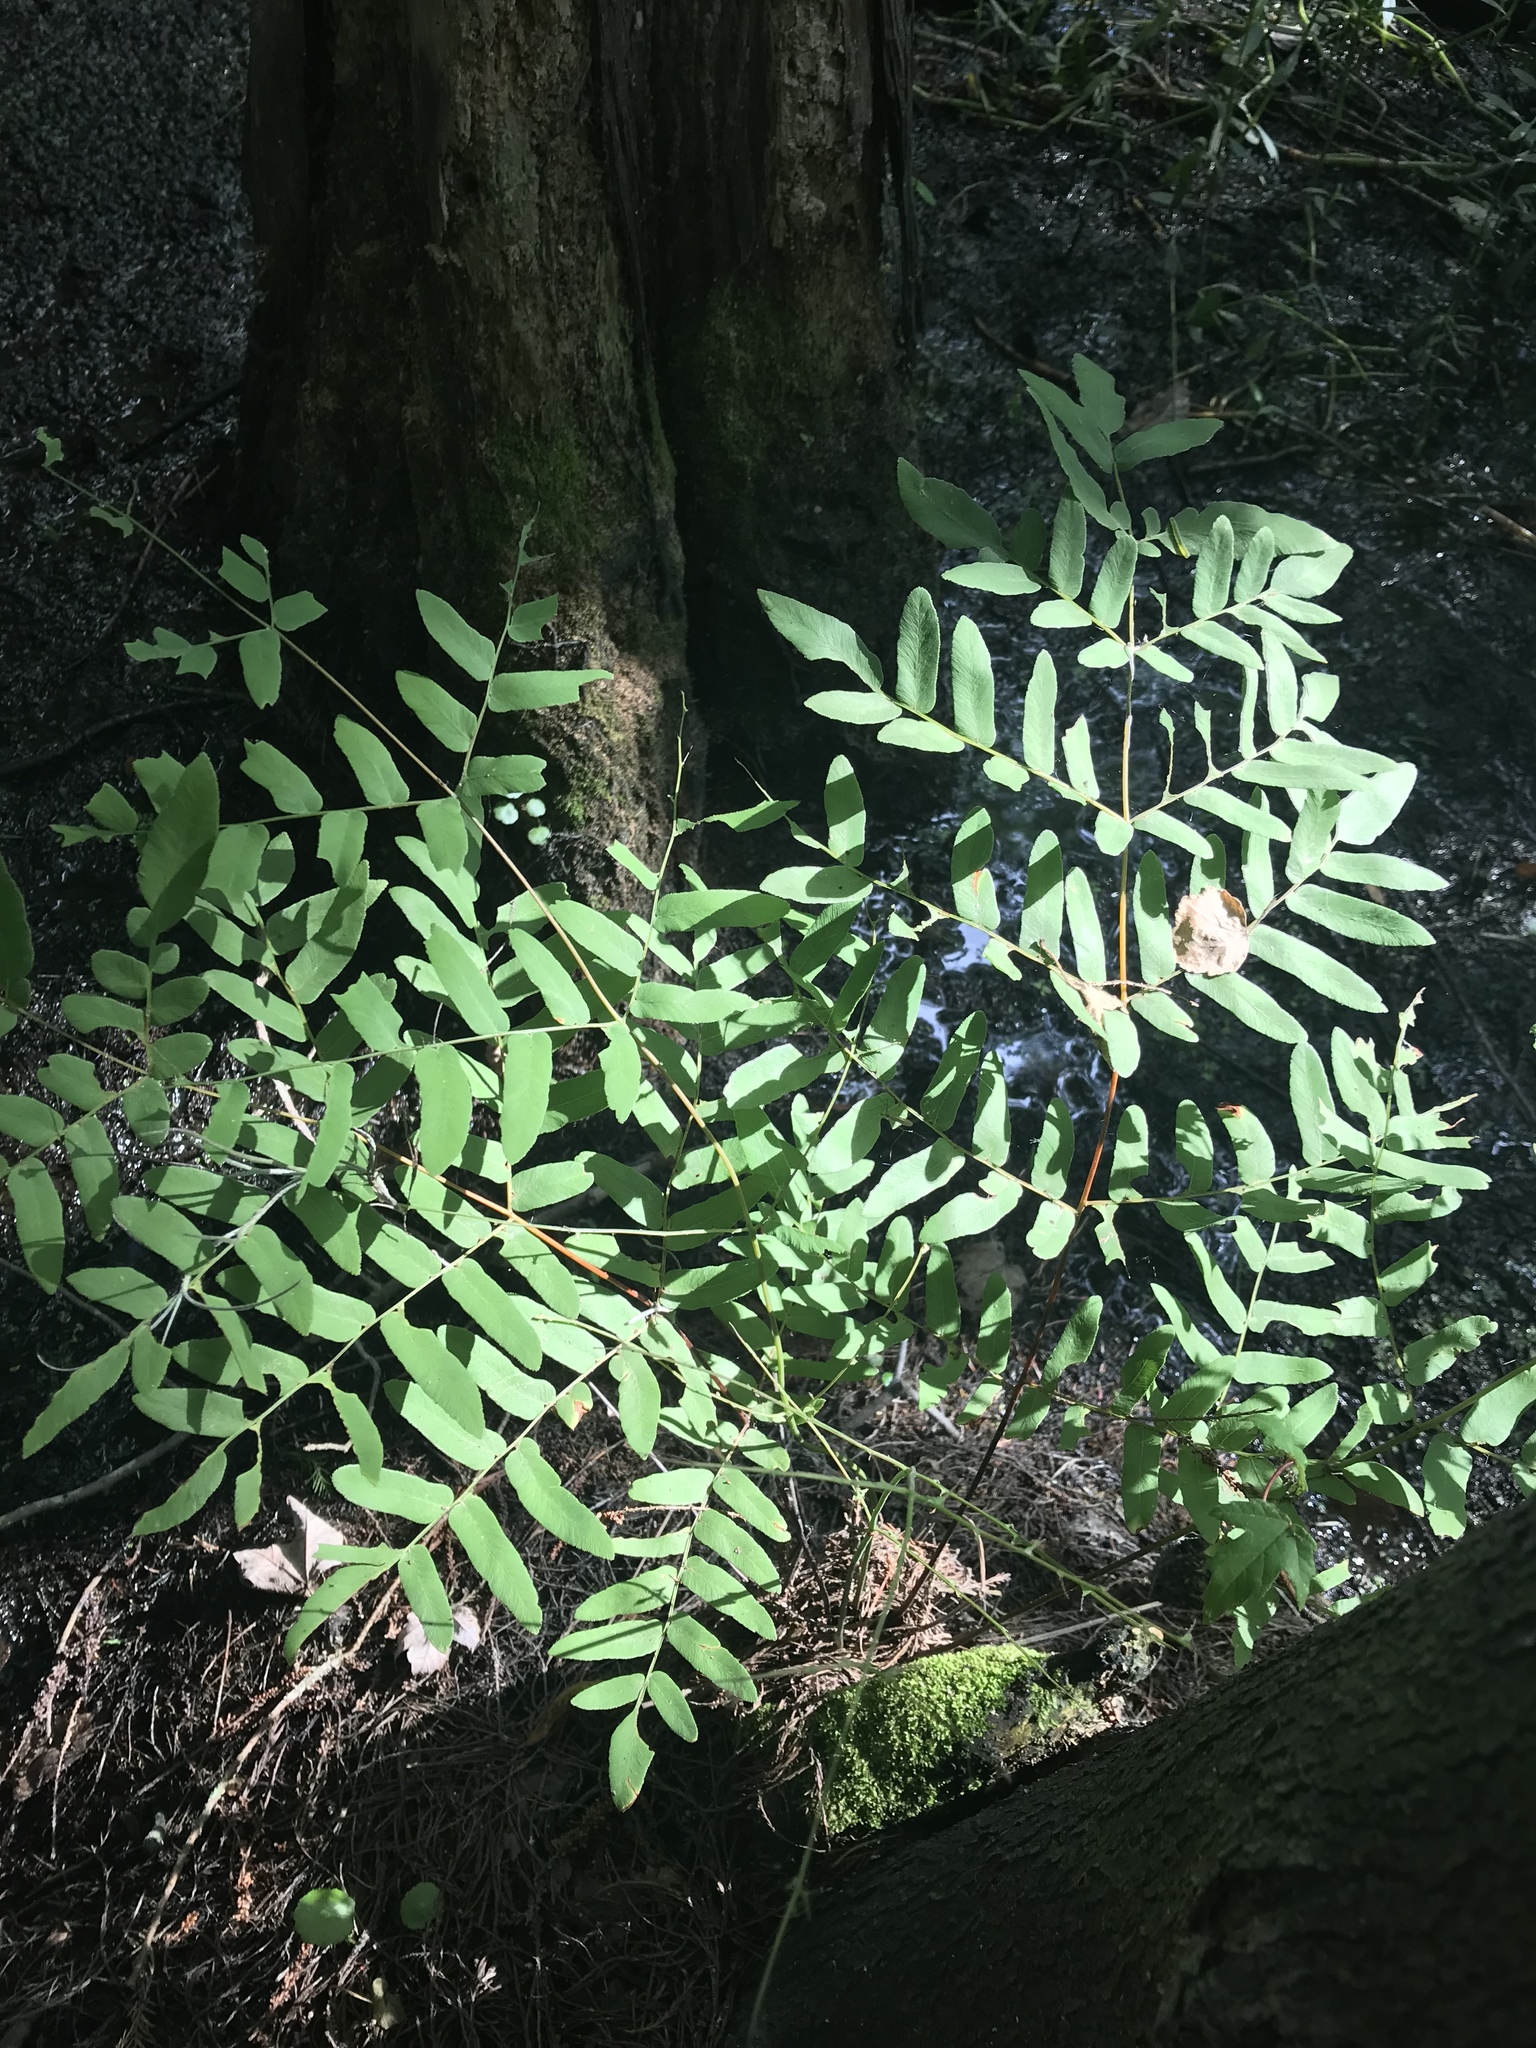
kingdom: Plantae
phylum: Tracheophyta
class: Polypodiopsida
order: Osmundales
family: Osmundaceae
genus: Osmunda
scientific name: Osmunda spectabilis
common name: American royal fern
